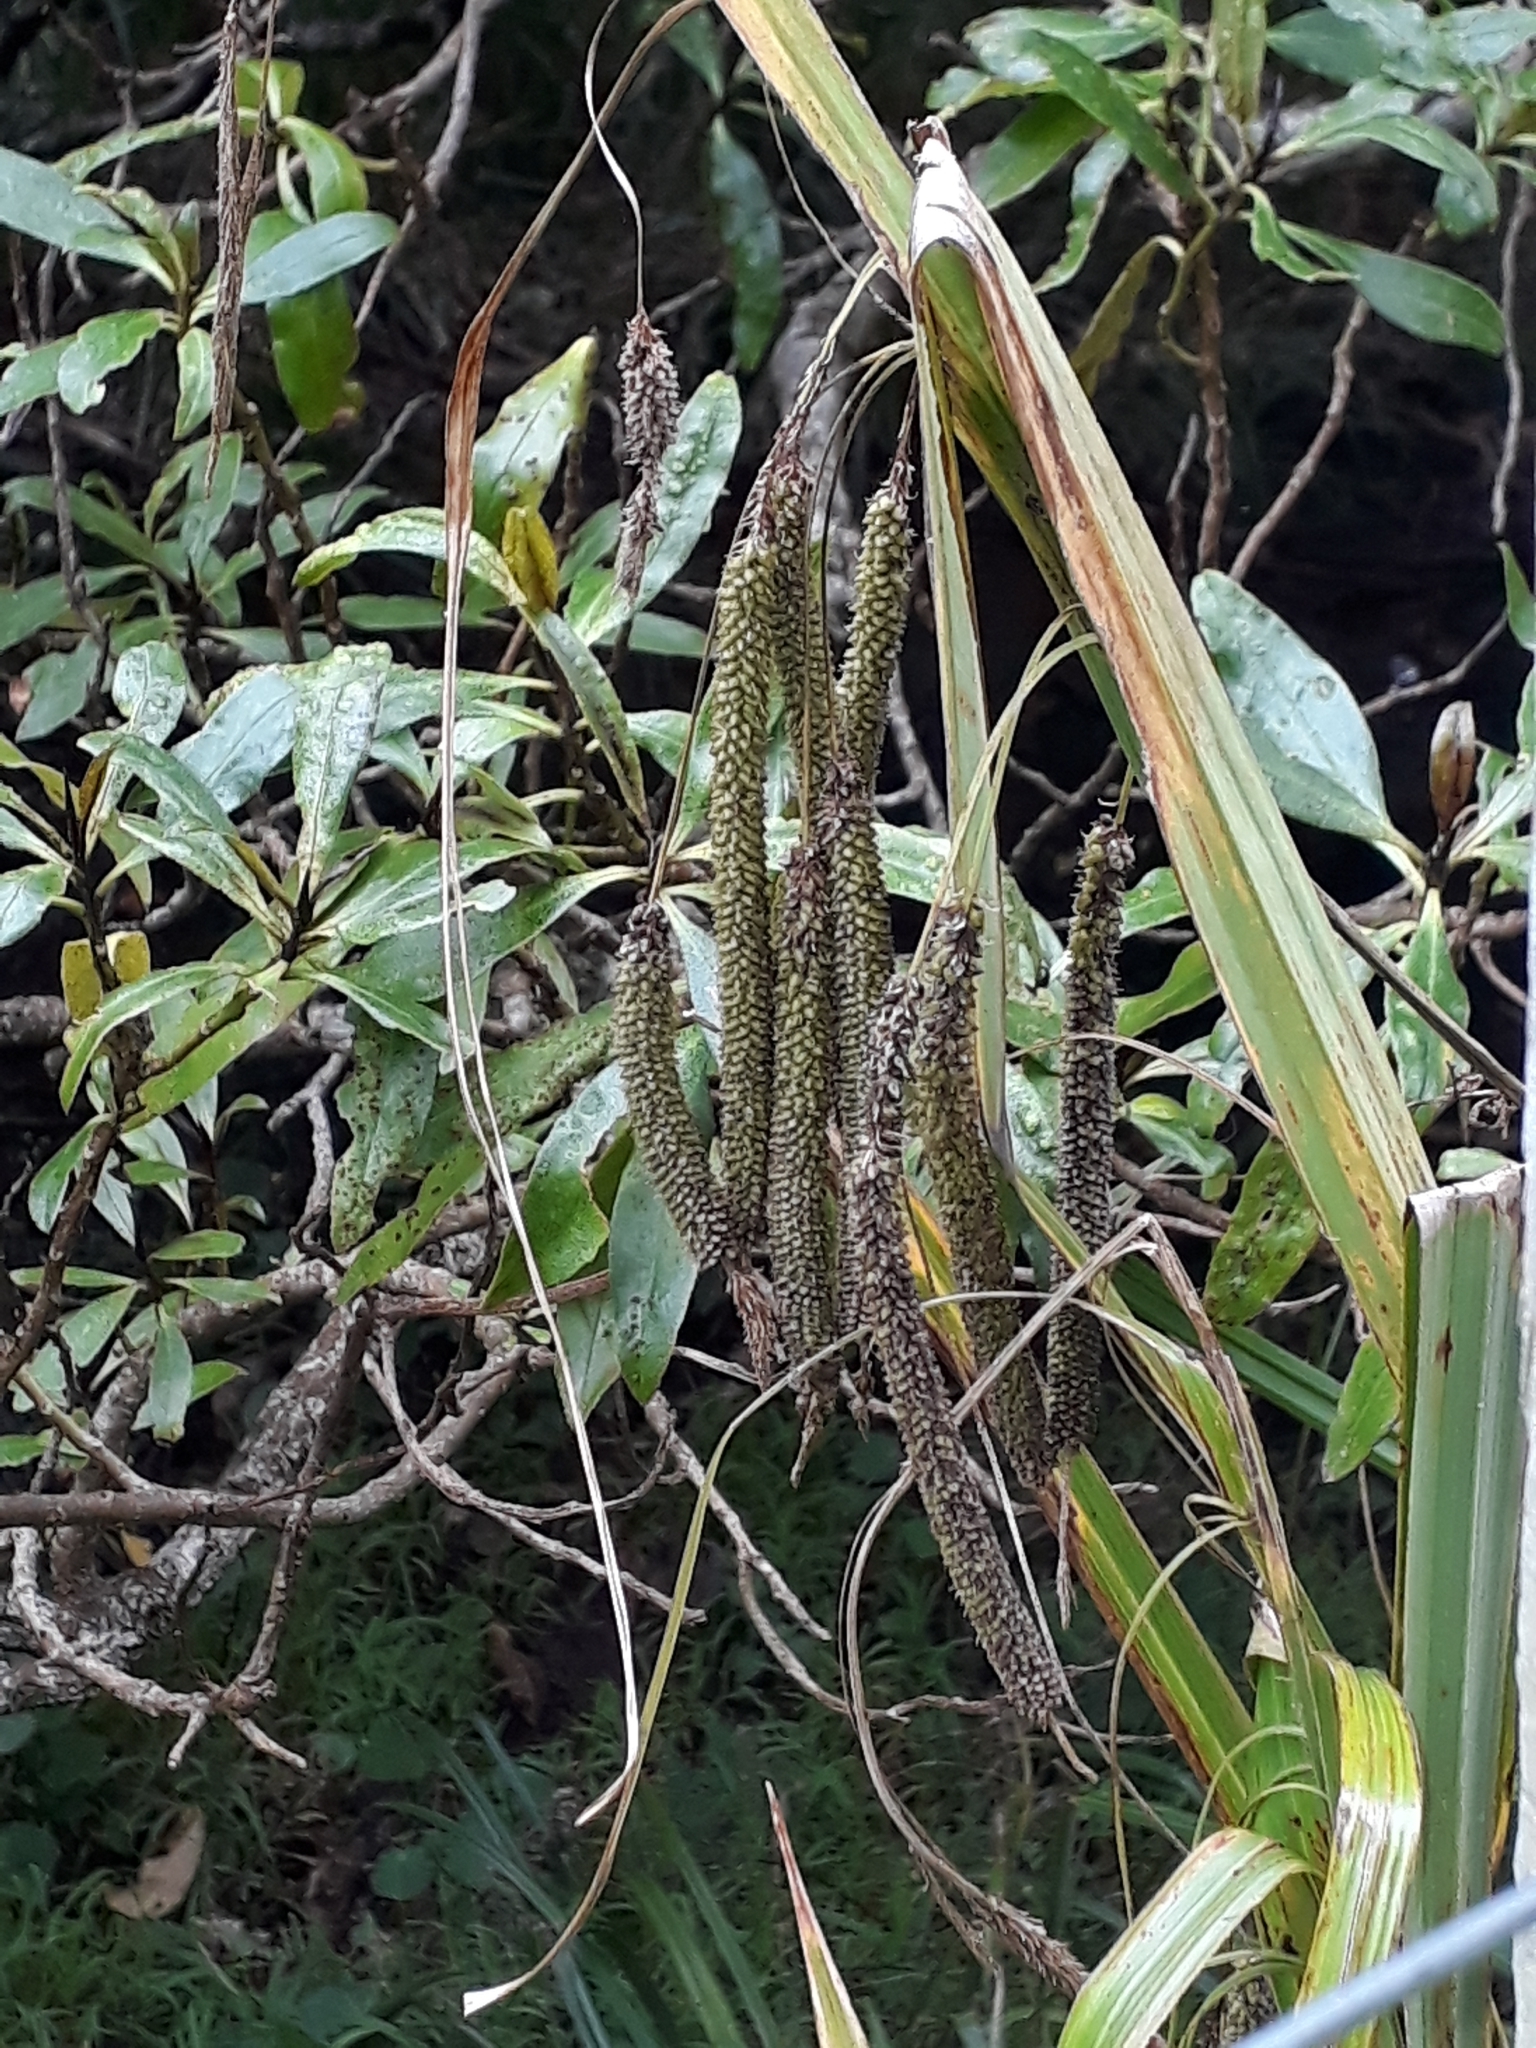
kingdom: Plantae
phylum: Tracheophyta
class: Liliopsida
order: Poales
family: Cyperaceae
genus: Carex
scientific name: Carex geminata
